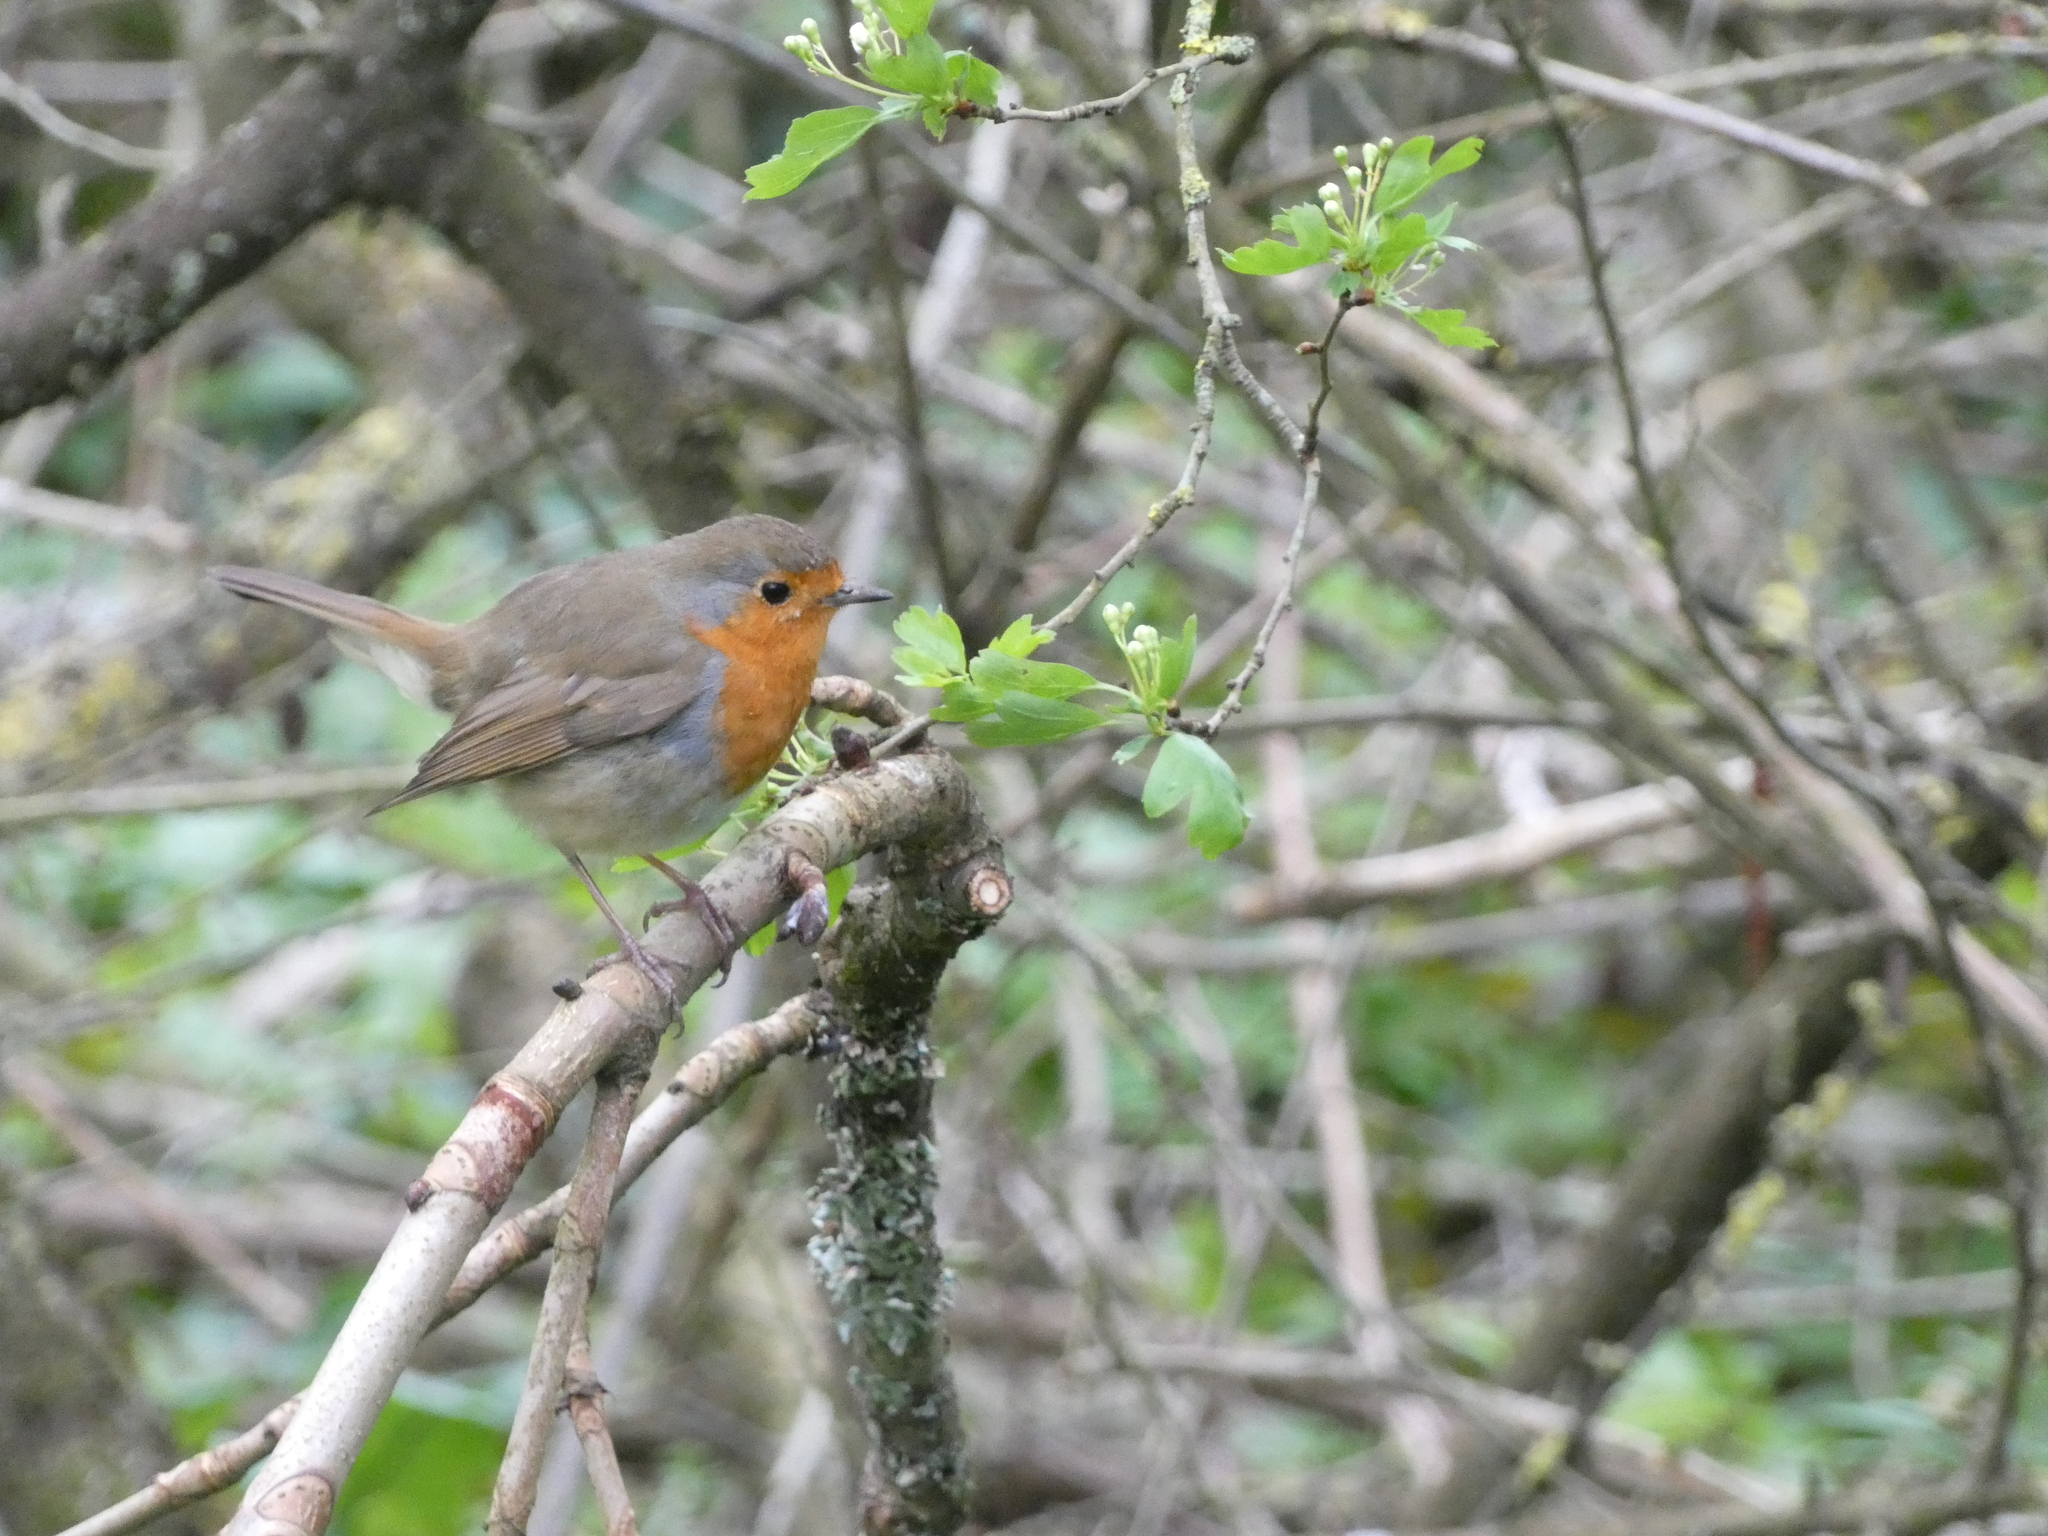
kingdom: Animalia
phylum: Chordata
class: Aves
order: Passeriformes
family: Muscicapidae
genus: Erithacus
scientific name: Erithacus rubecula
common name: European robin
